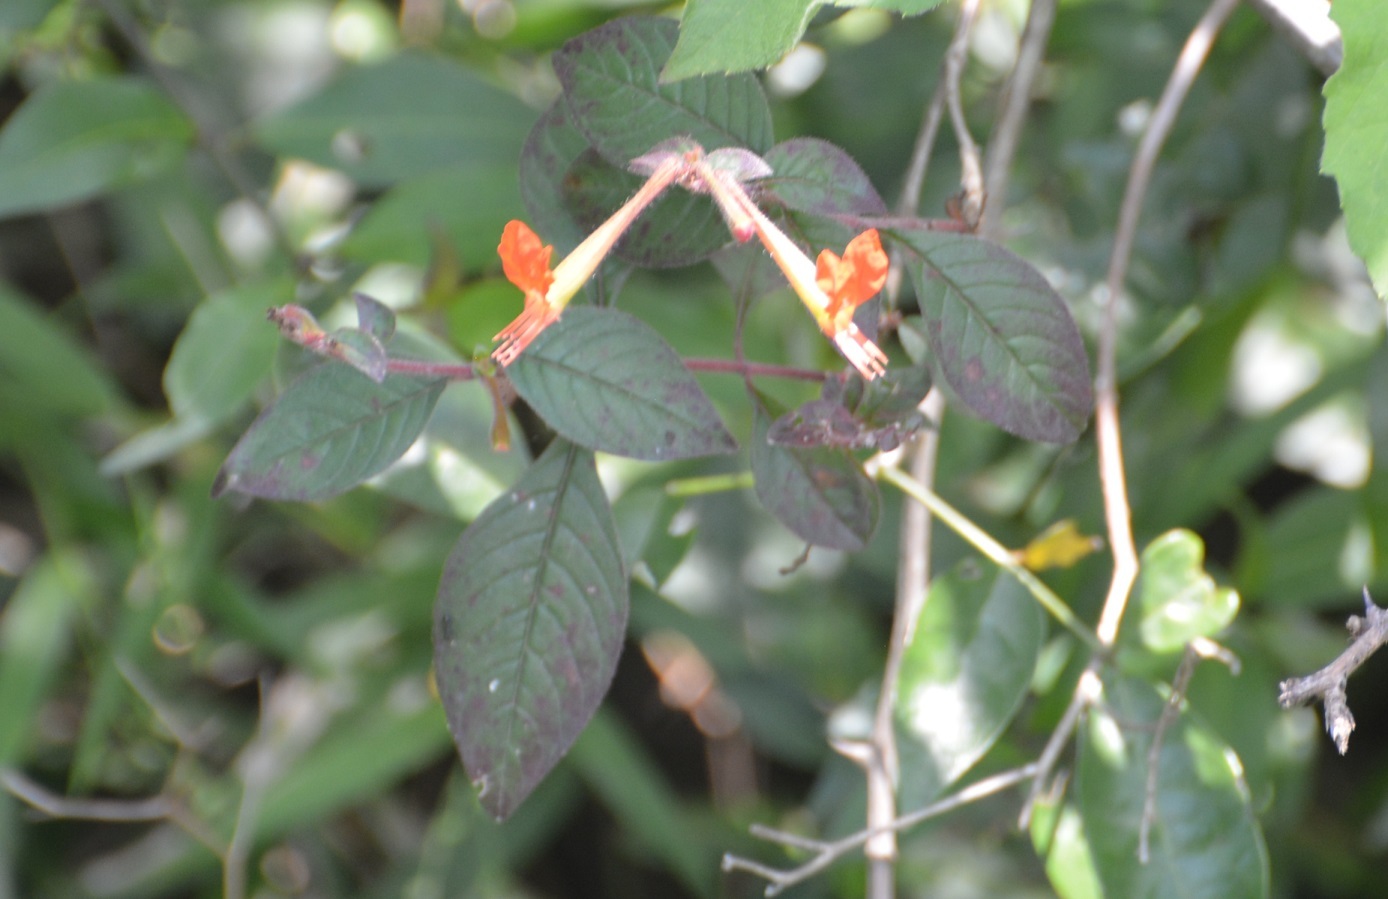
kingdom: Plantae
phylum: Tracheophyta
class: Magnoliopsida
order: Myrtales
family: Lythraceae
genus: Cuphea
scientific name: Cuphea appendiculata
